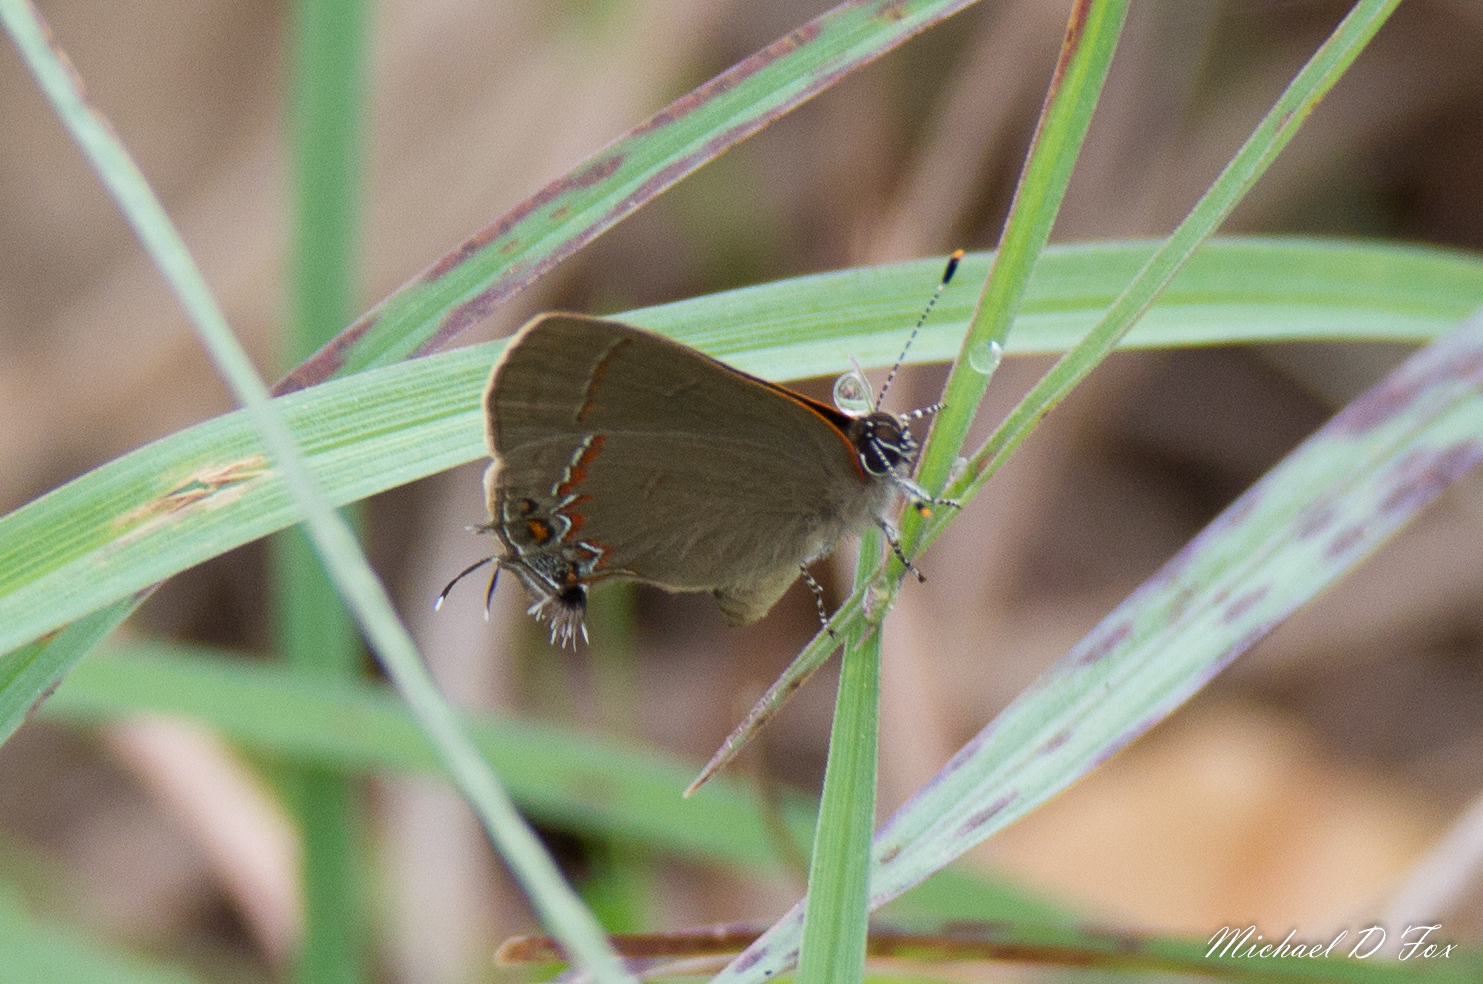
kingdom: Animalia
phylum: Arthropoda
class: Insecta
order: Lepidoptera
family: Lycaenidae
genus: Calycopis
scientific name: Calycopis isobeon
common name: Dusky-blue groundstreak
